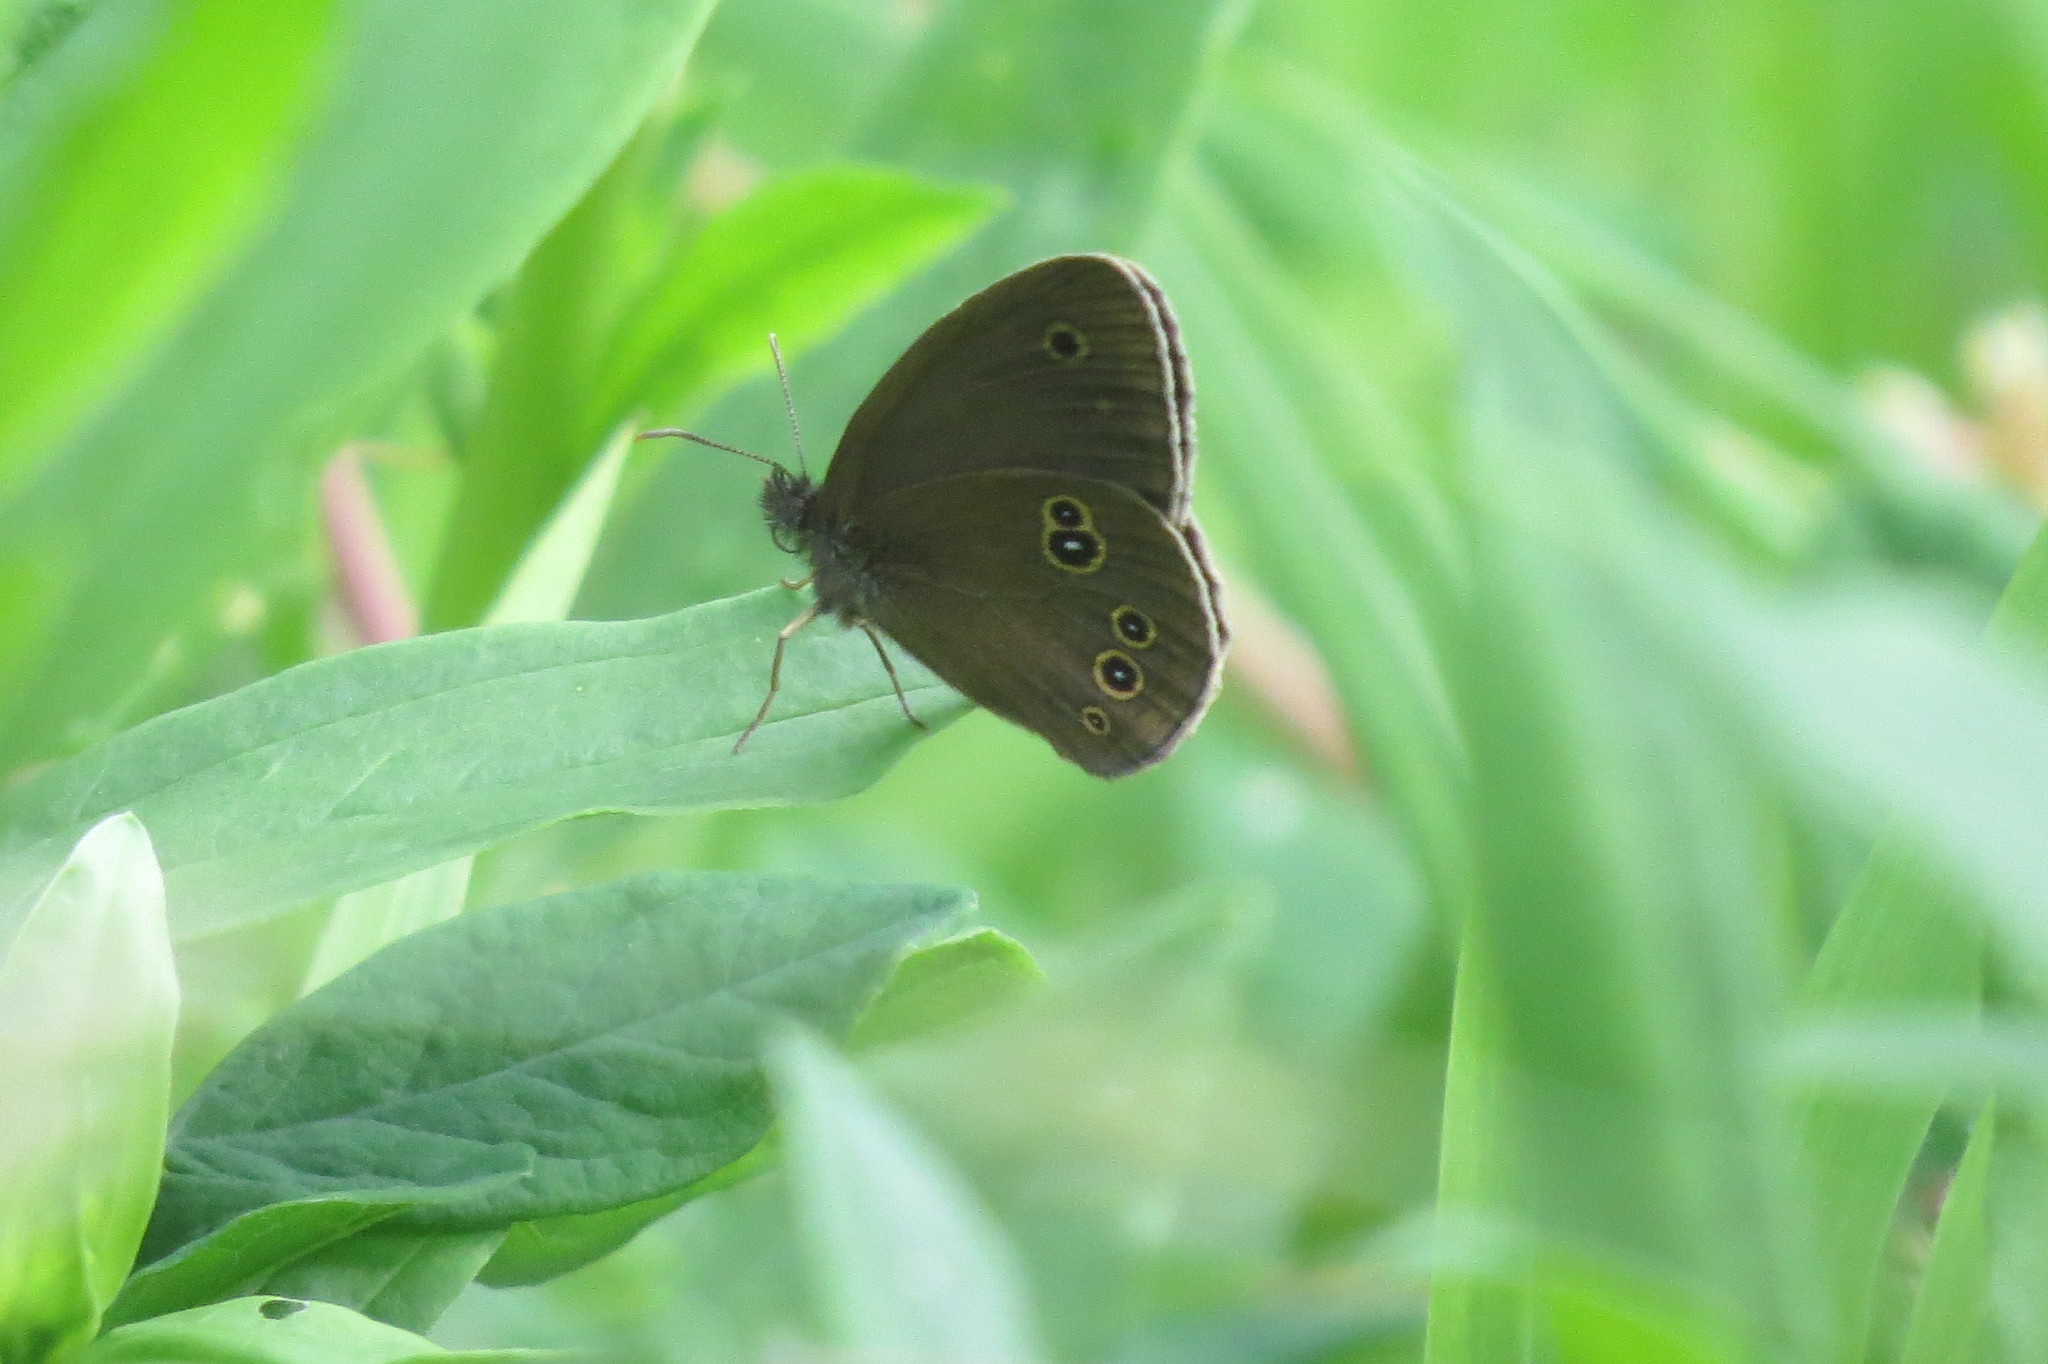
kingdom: Animalia
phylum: Arthropoda
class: Insecta
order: Lepidoptera
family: Nymphalidae
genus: Aphantopus
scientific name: Aphantopus hyperantus
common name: Ringlet
